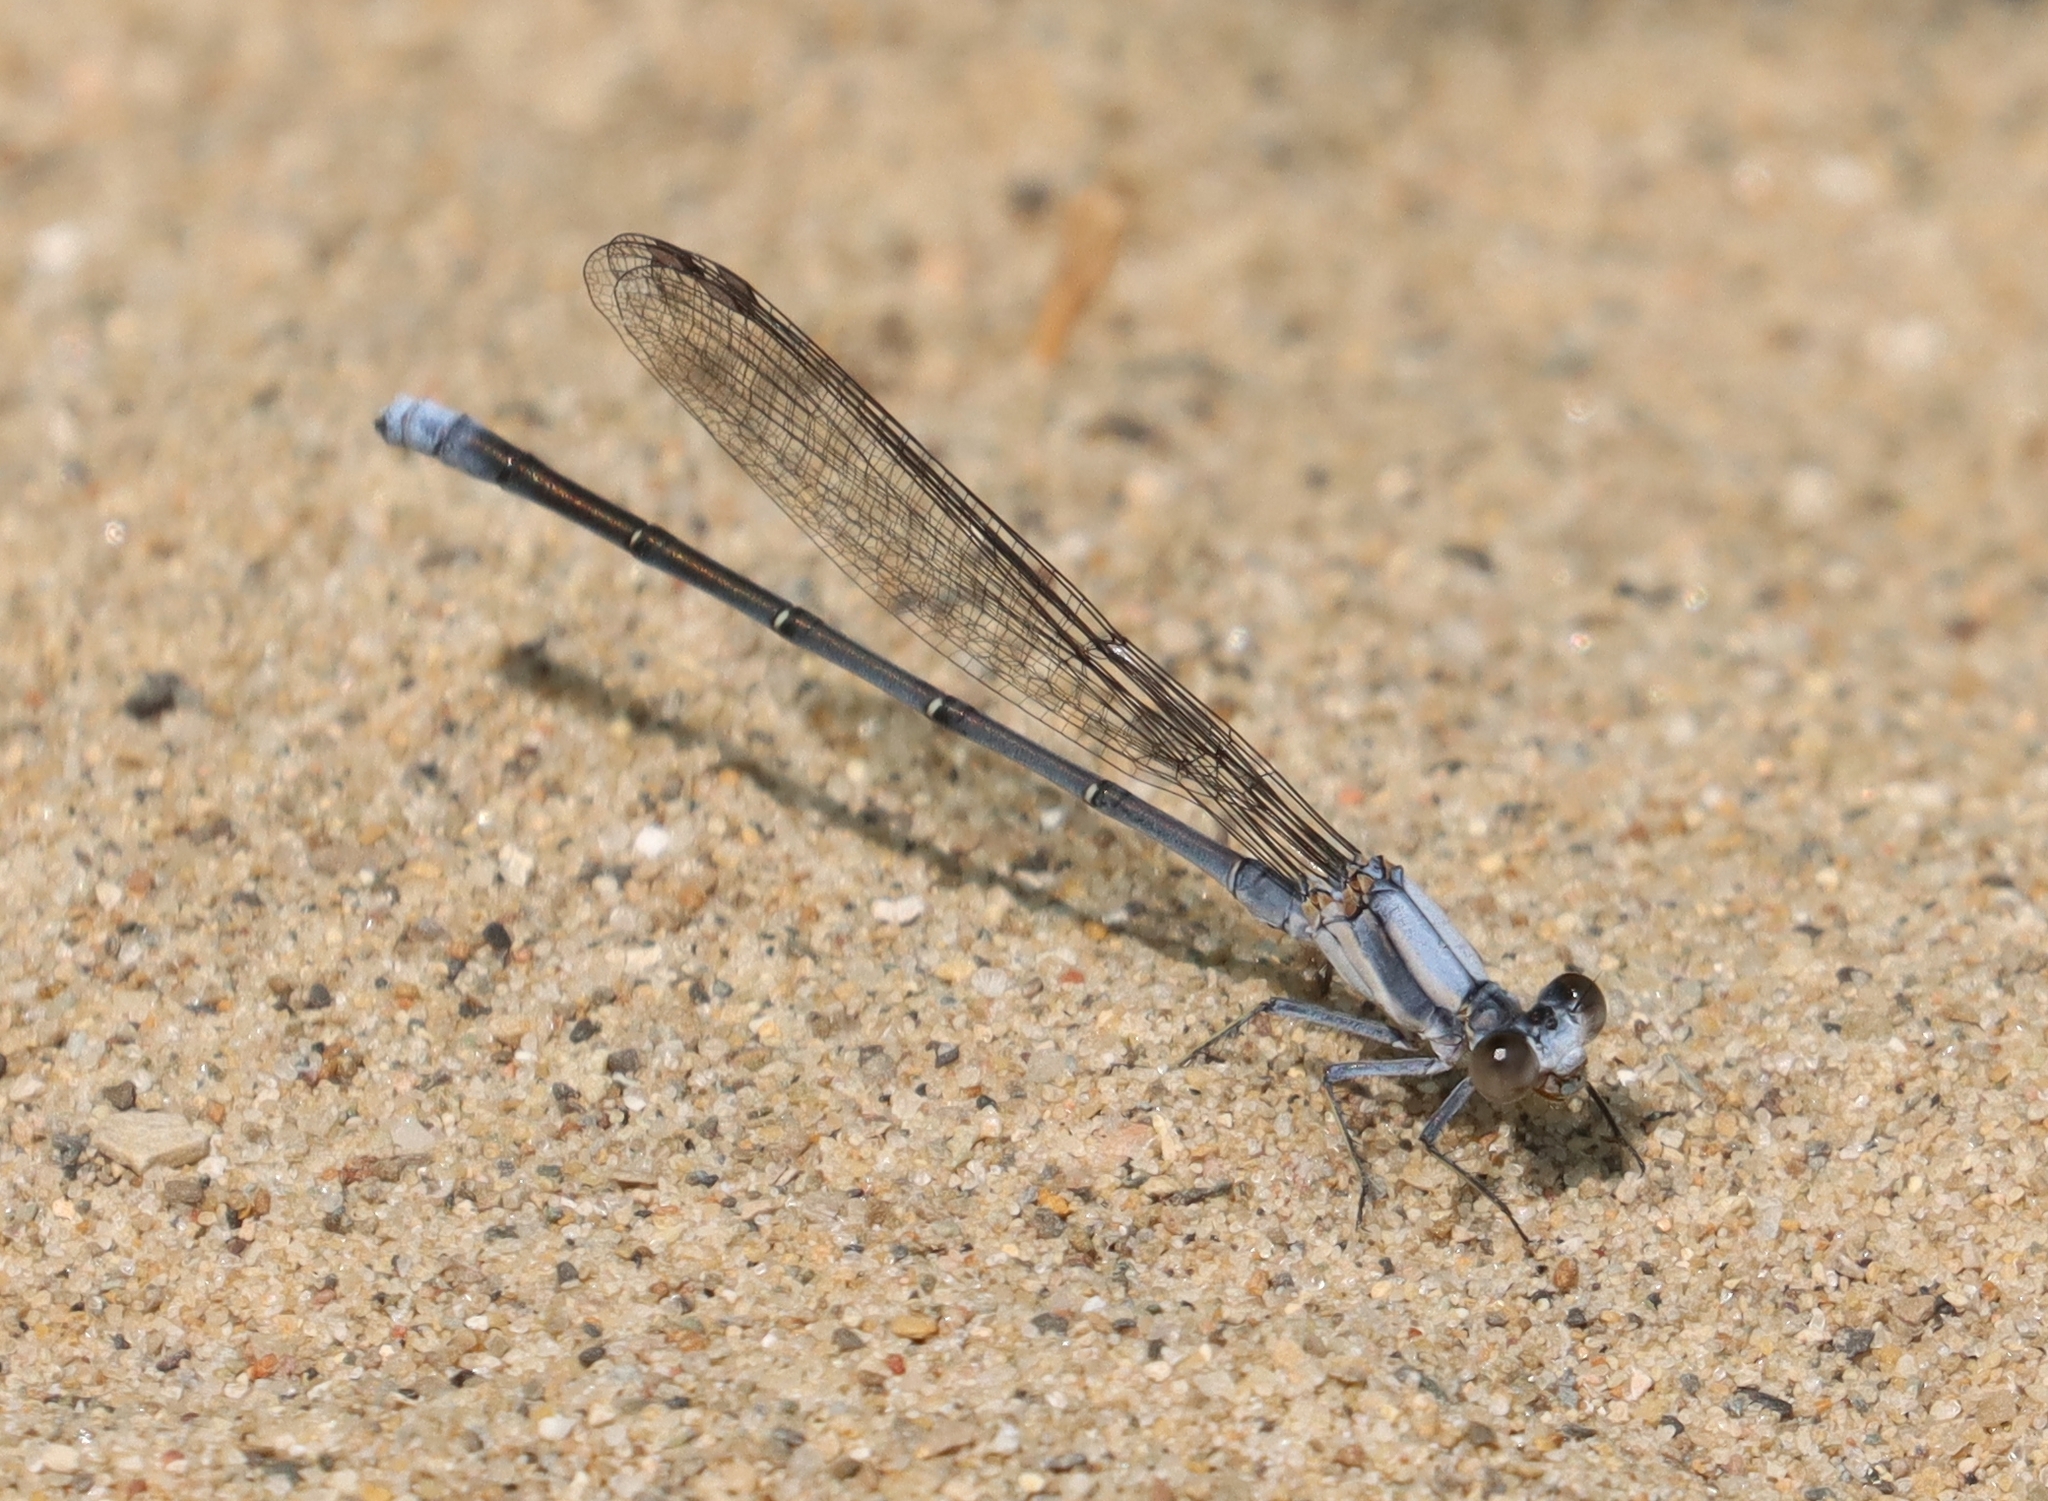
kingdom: Animalia
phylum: Arthropoda
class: Insecta
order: Odonata
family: Coenagrionidae
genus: Argia
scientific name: Argia moesta
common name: Powdered dancer
